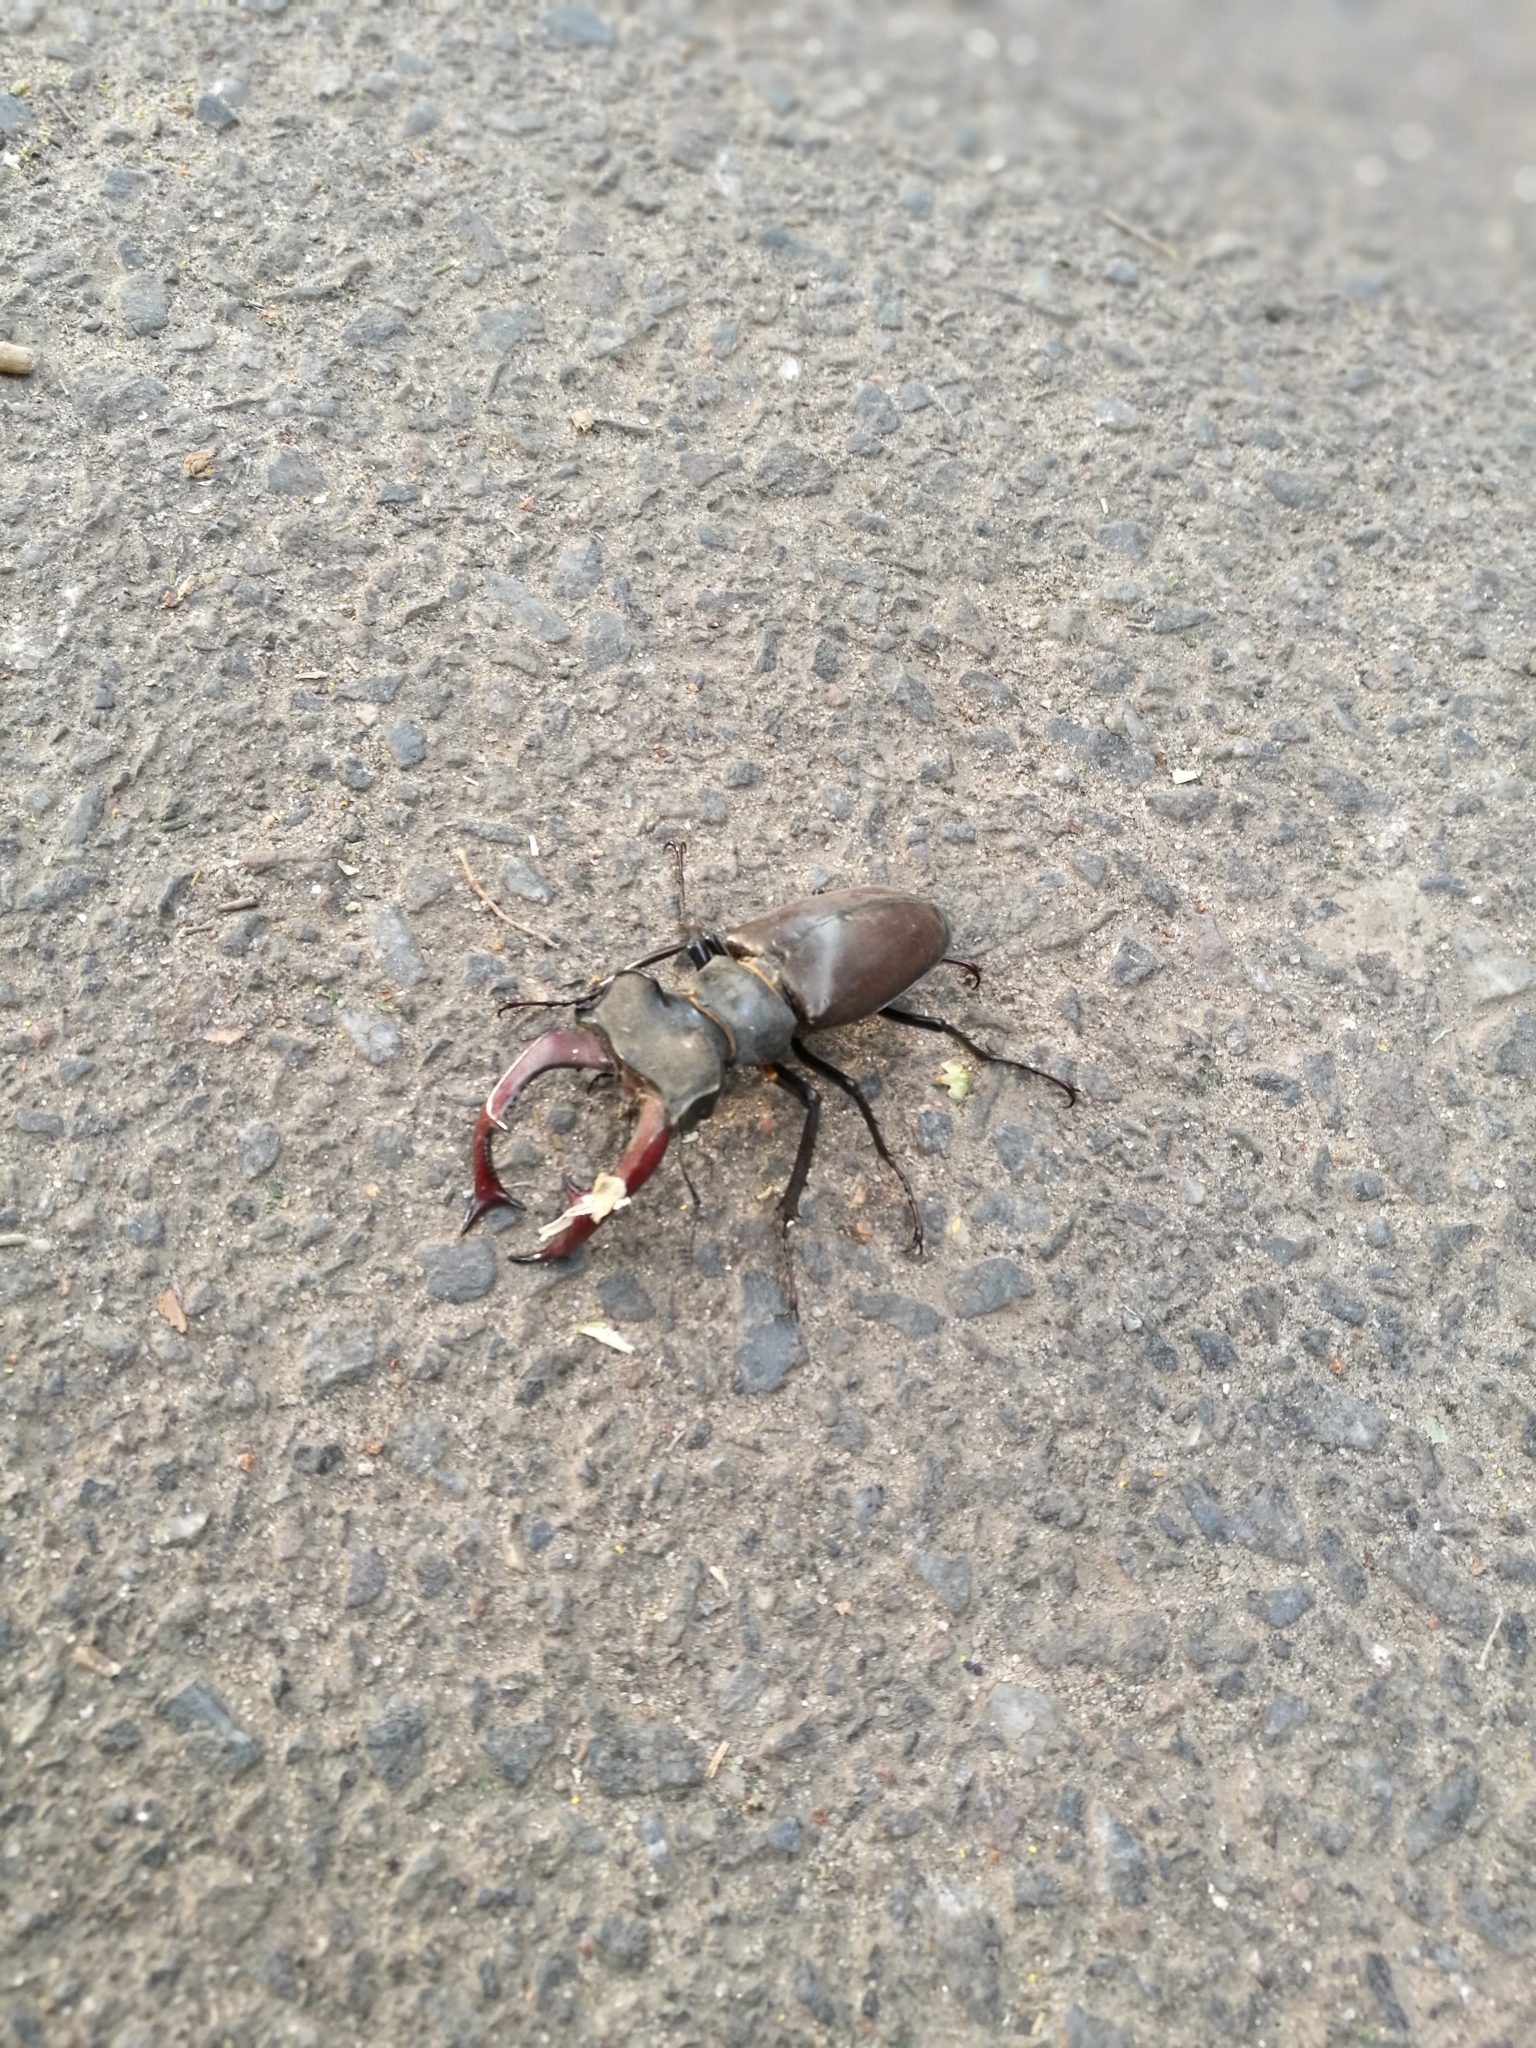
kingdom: Animalia
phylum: Arthropoda
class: Insecta
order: Coleoptera
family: Lucanidae
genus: Lucanus
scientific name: Lucanus cervus
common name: Stag beetle
